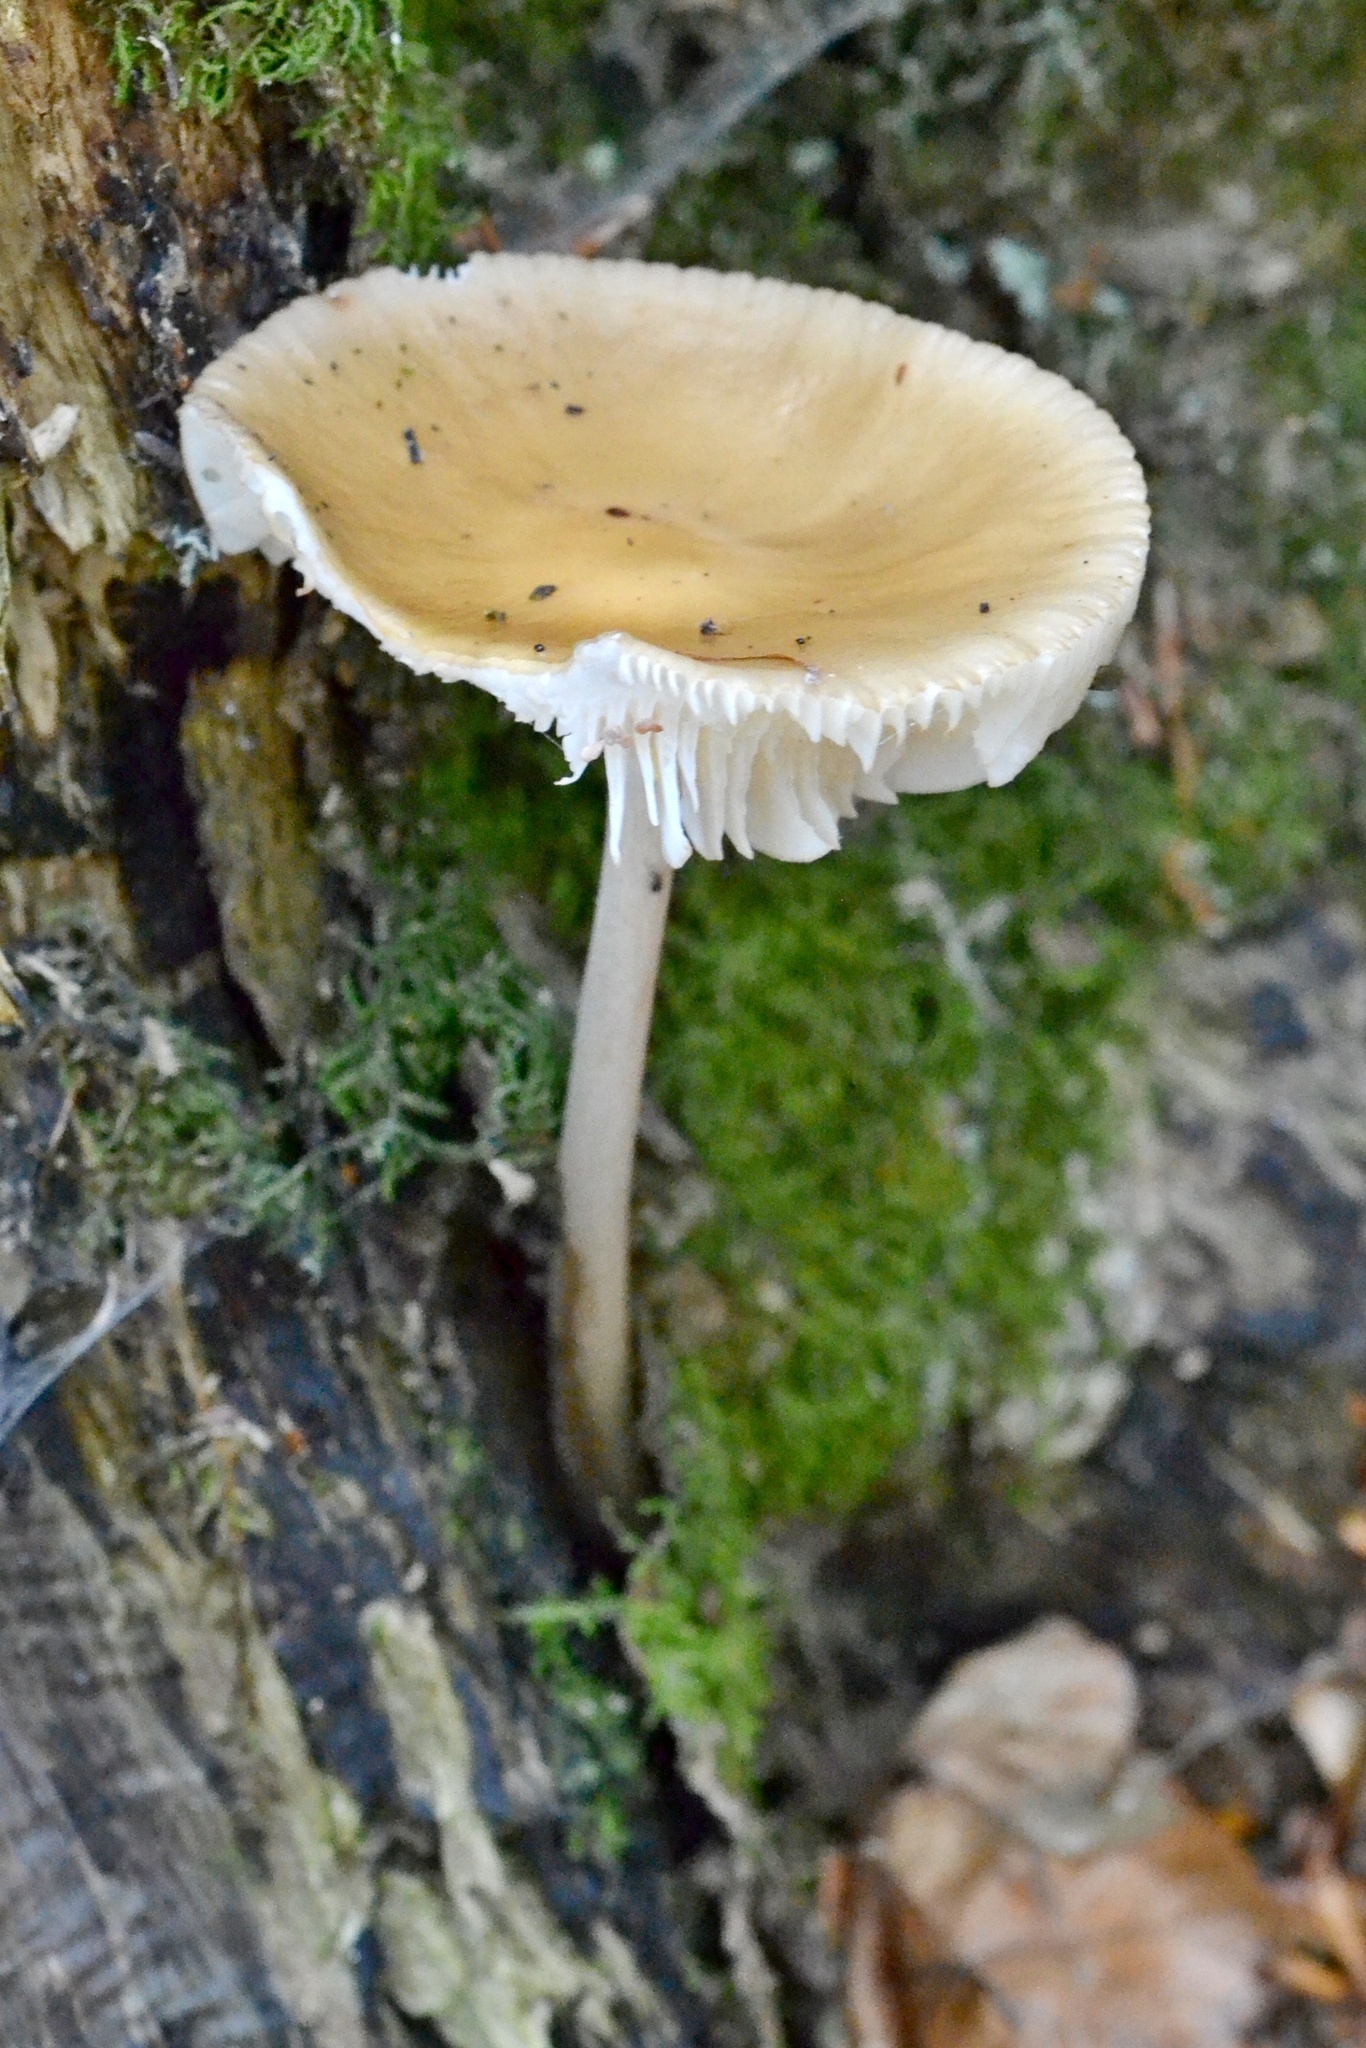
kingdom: Fungi
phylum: Basidiomycota
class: Agaricomycetes
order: Agaricales
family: Physalacriaceae
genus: Hymenopellis
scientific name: Hymenopellis radicata
